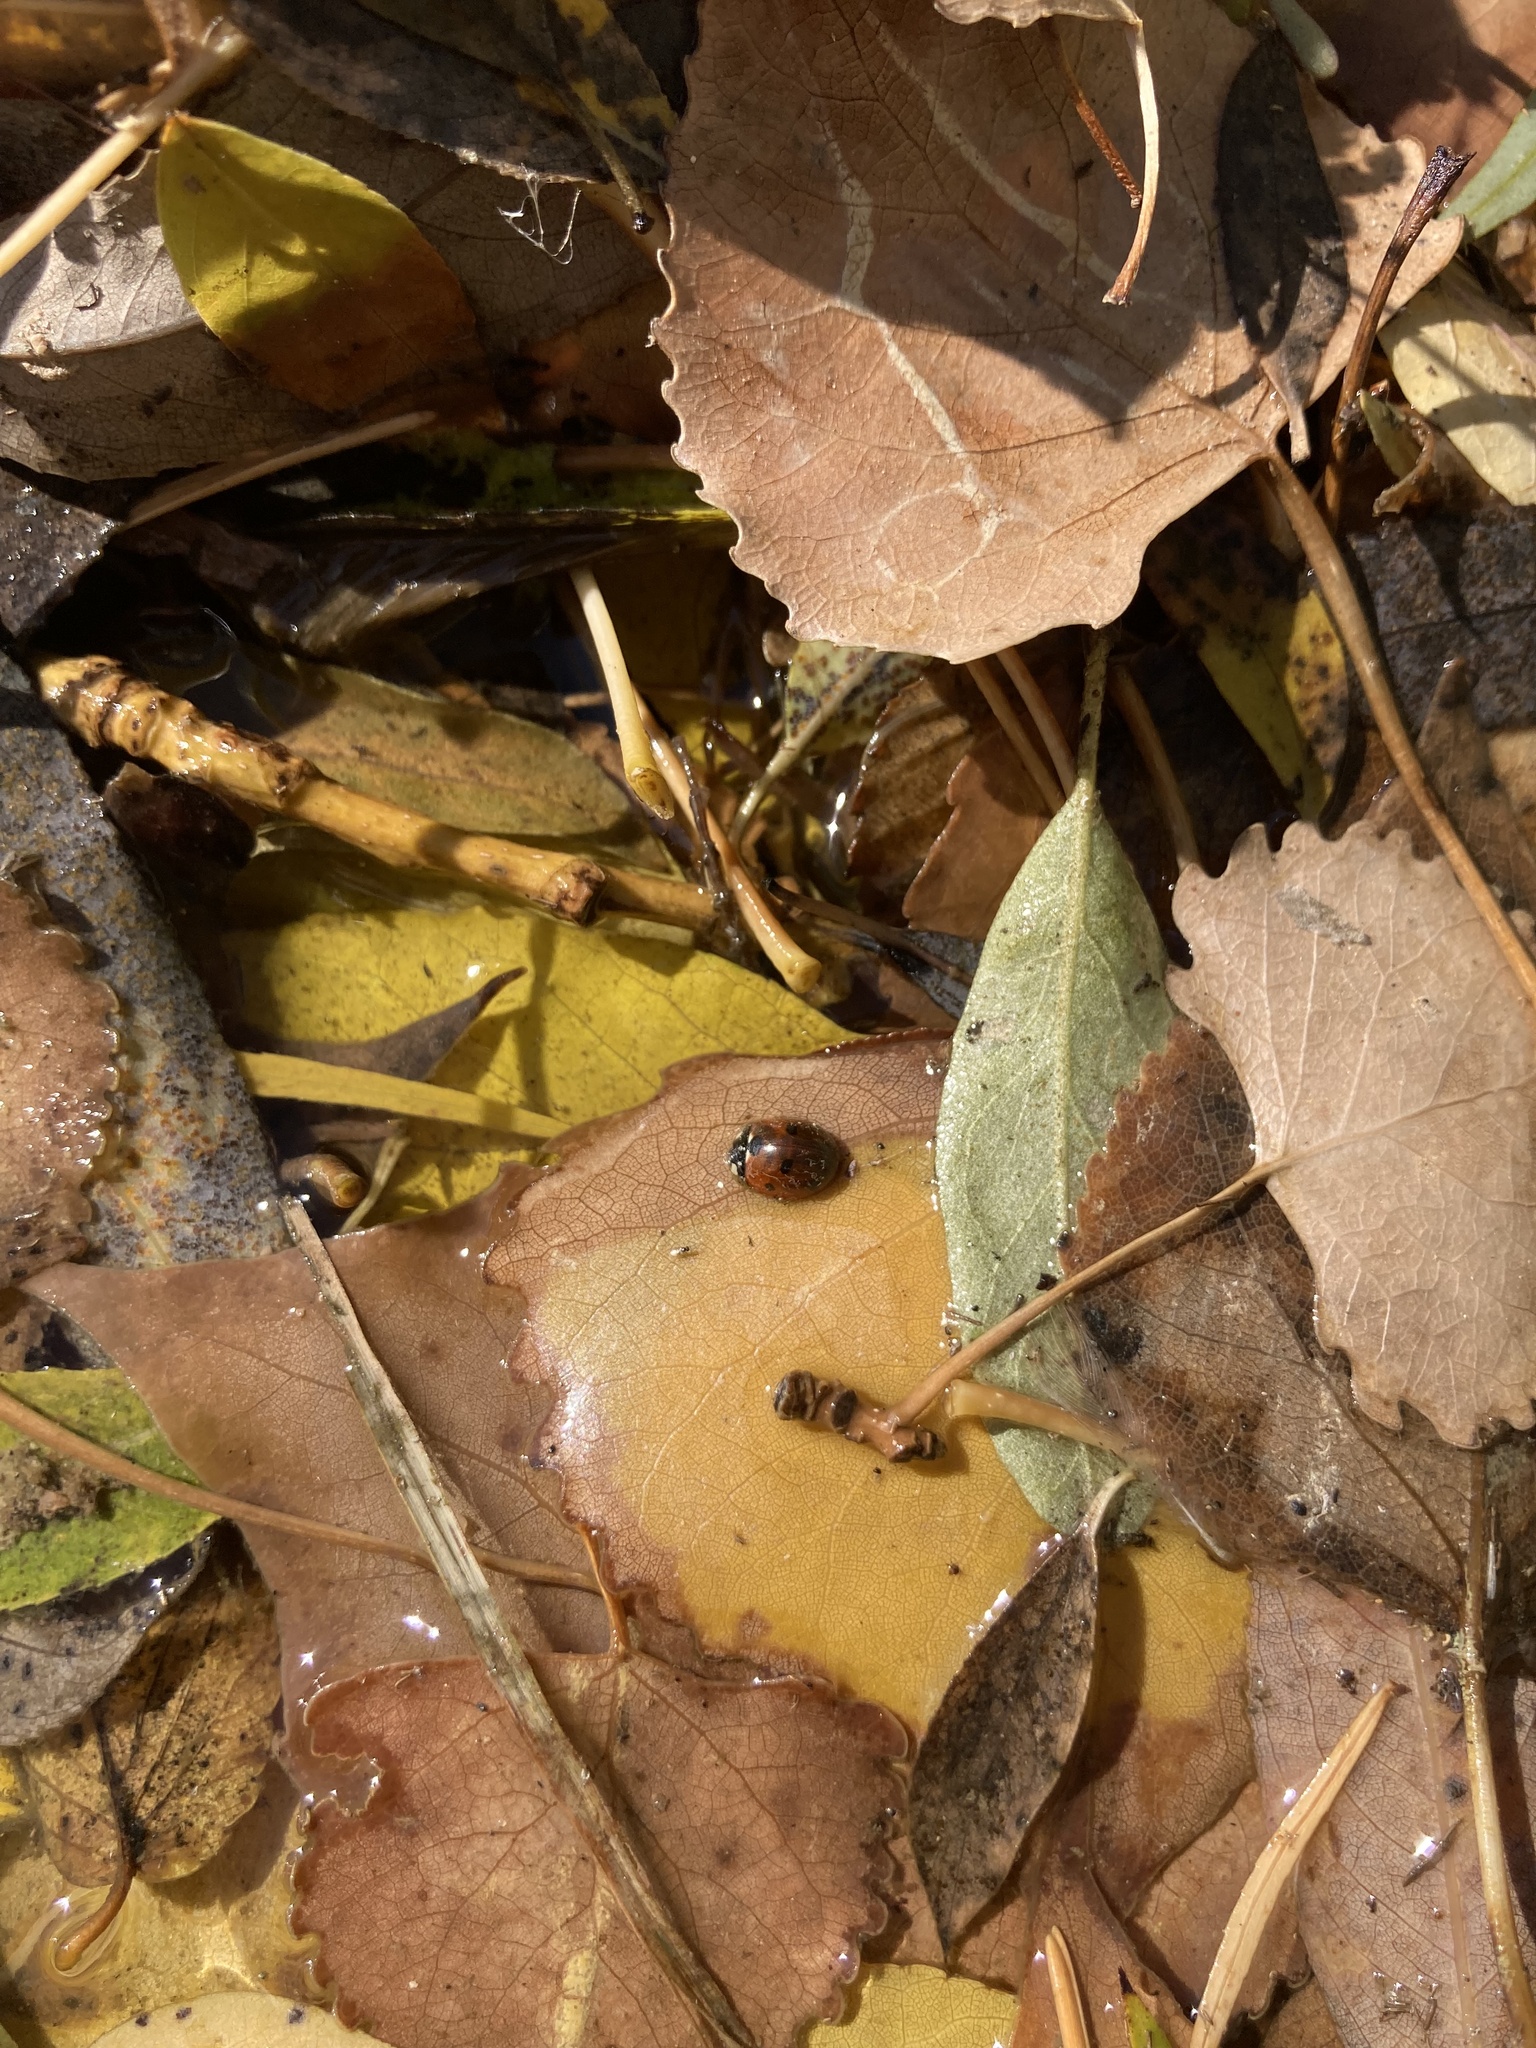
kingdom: Animalia
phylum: Arthropoda
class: Insecta
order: Coleoptera
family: Coccinellidae
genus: Coccinella
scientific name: Coccinella septempunctata
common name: Sevenspotted lady beetle
